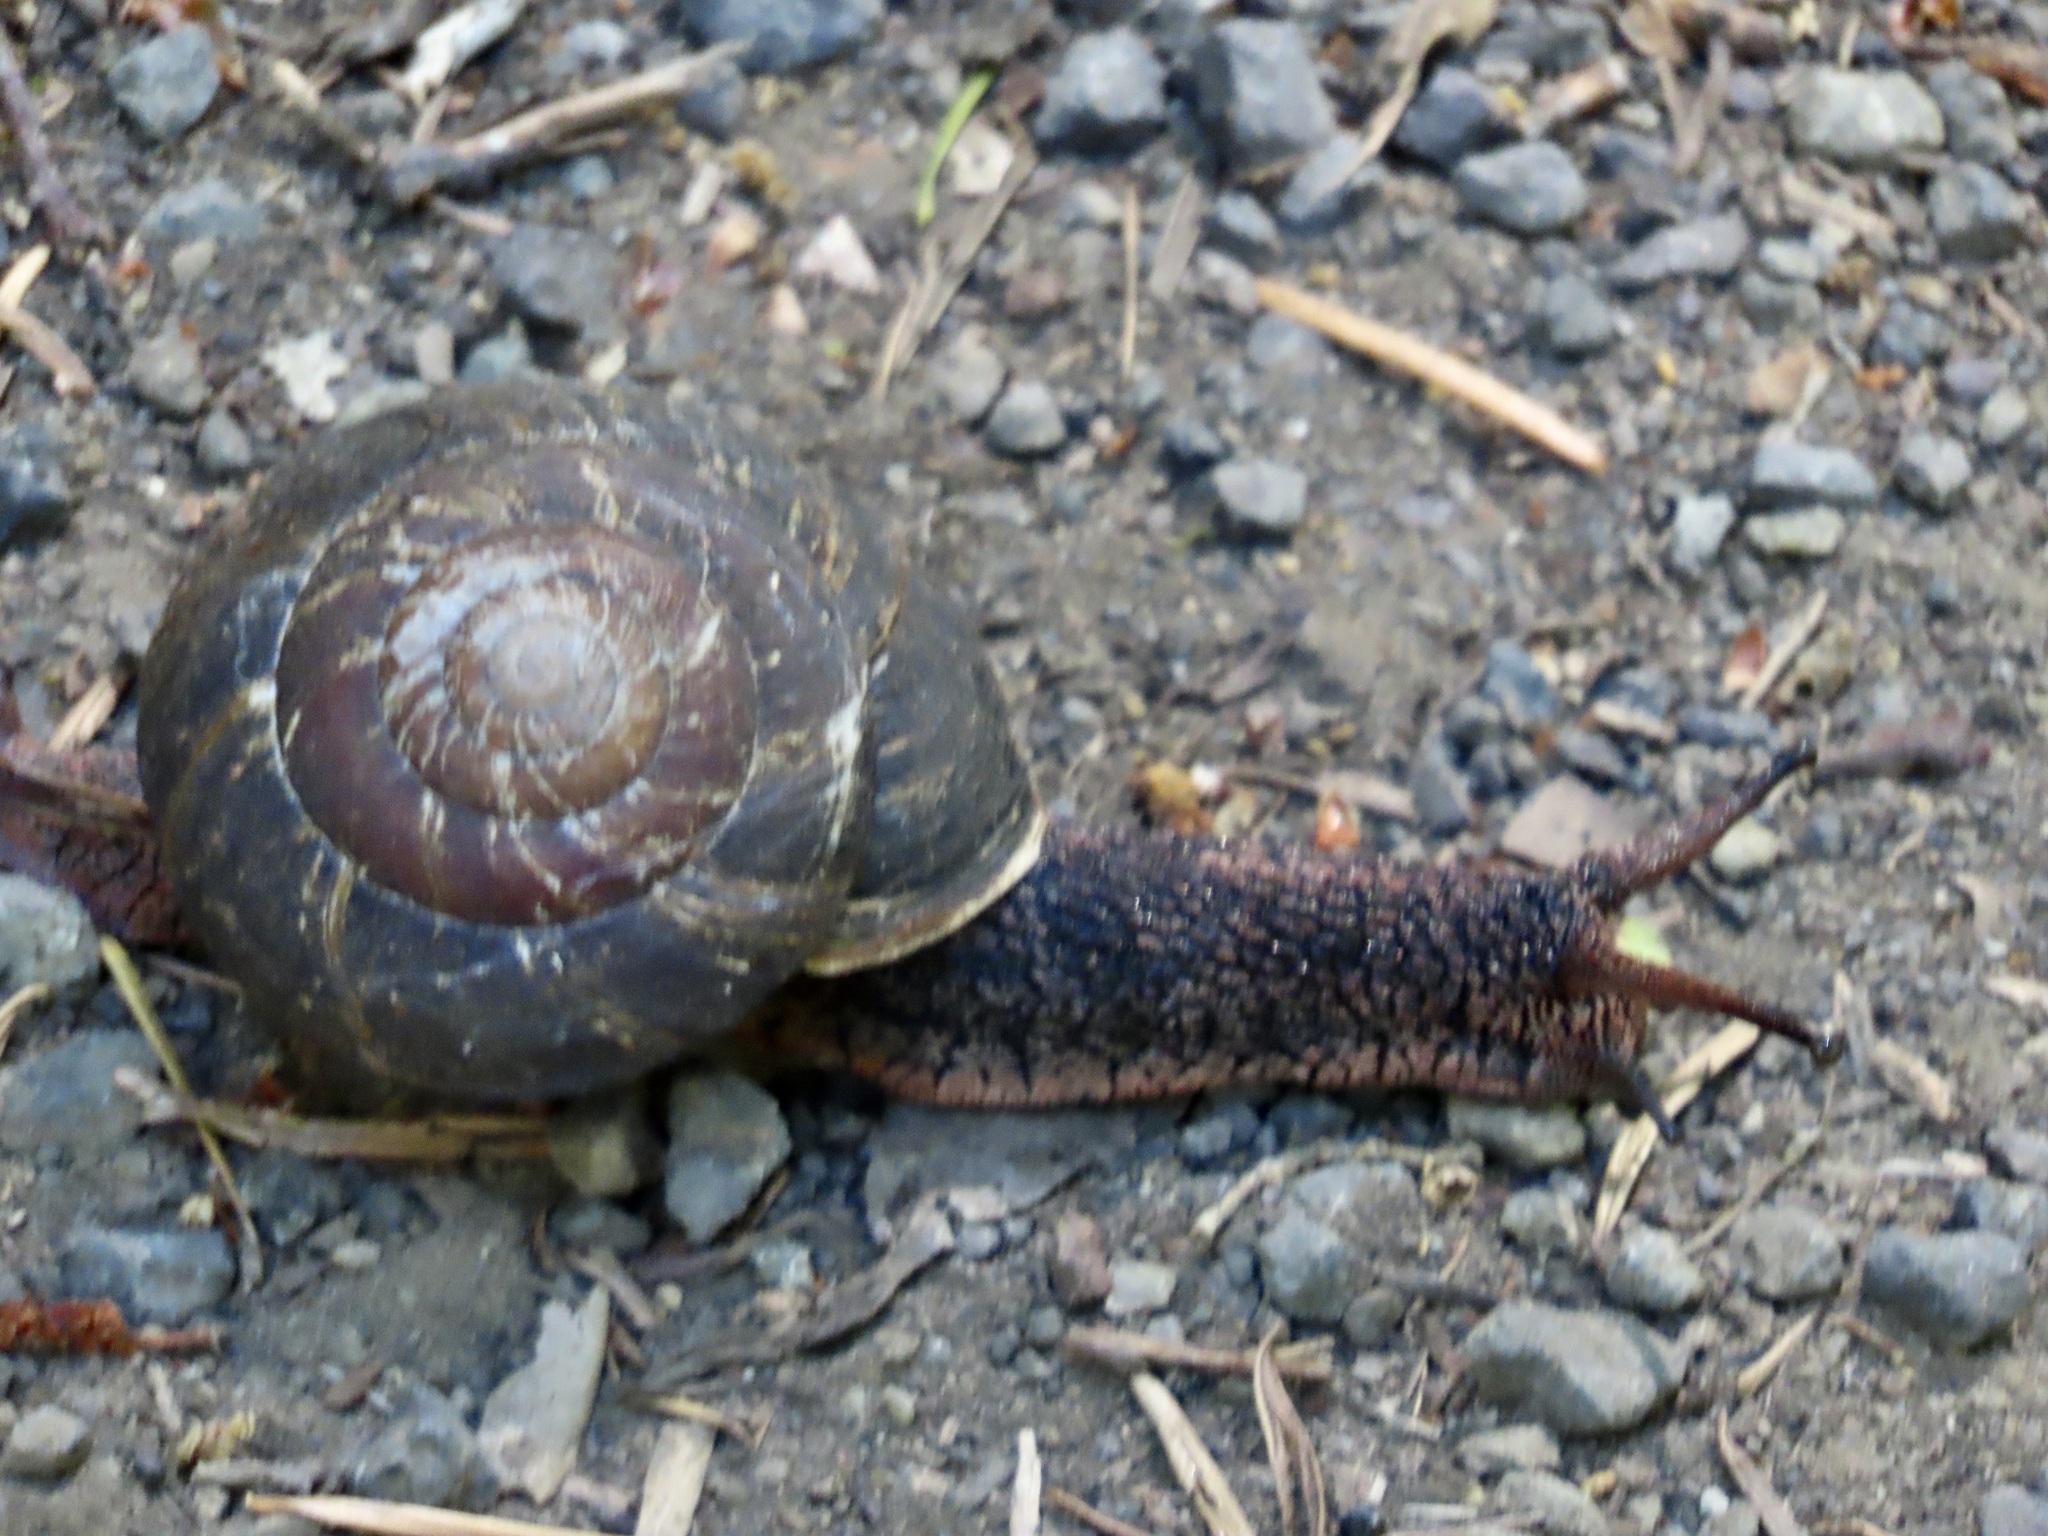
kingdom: Animalia
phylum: Mollusca
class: Gastropoda
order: Stylommatophora
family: Xanthonychidae
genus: Monadenia
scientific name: Monadenia infumata
